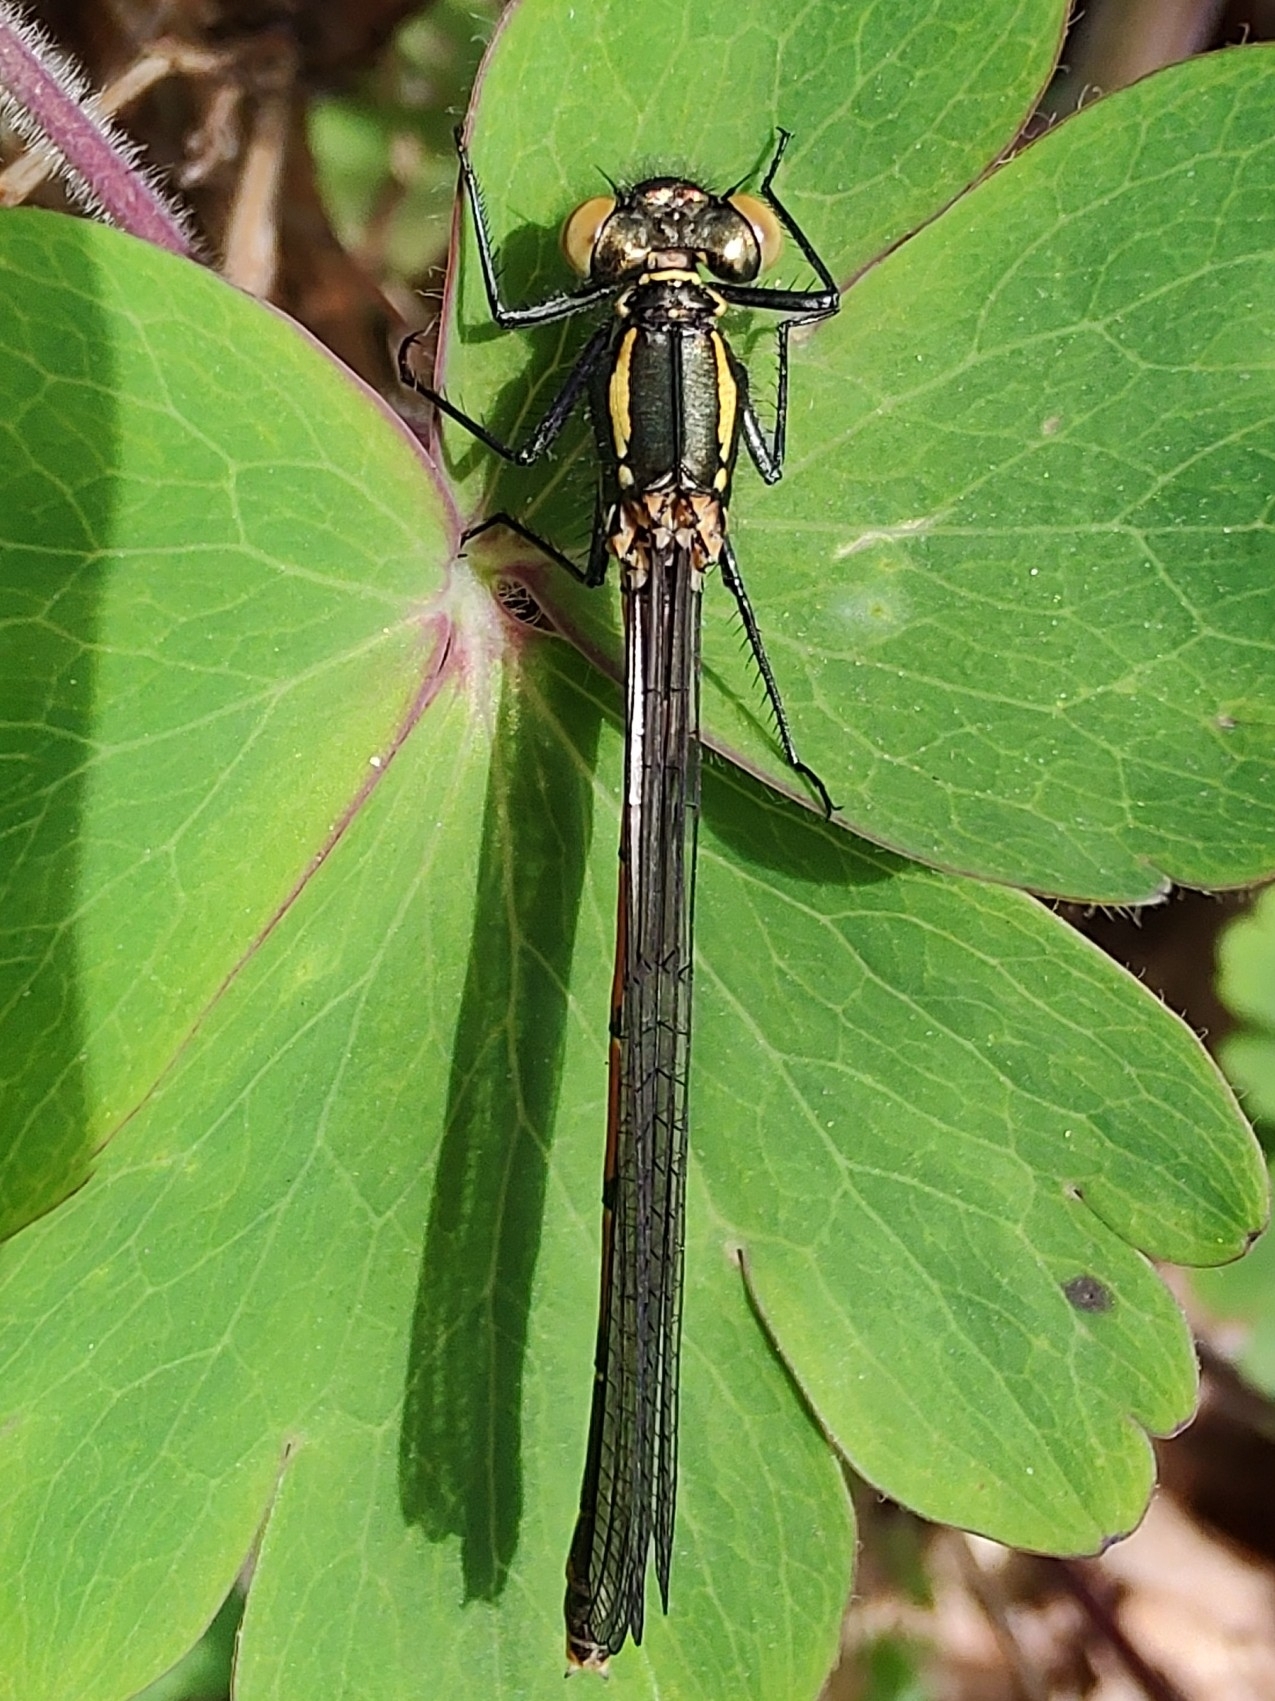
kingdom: Animalia
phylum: Arthropoda
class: Insecta
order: Odonata
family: Coenagrionidae
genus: Pyrrhosoma
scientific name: Pyrrhosoma nymphula
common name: Large red damsel
